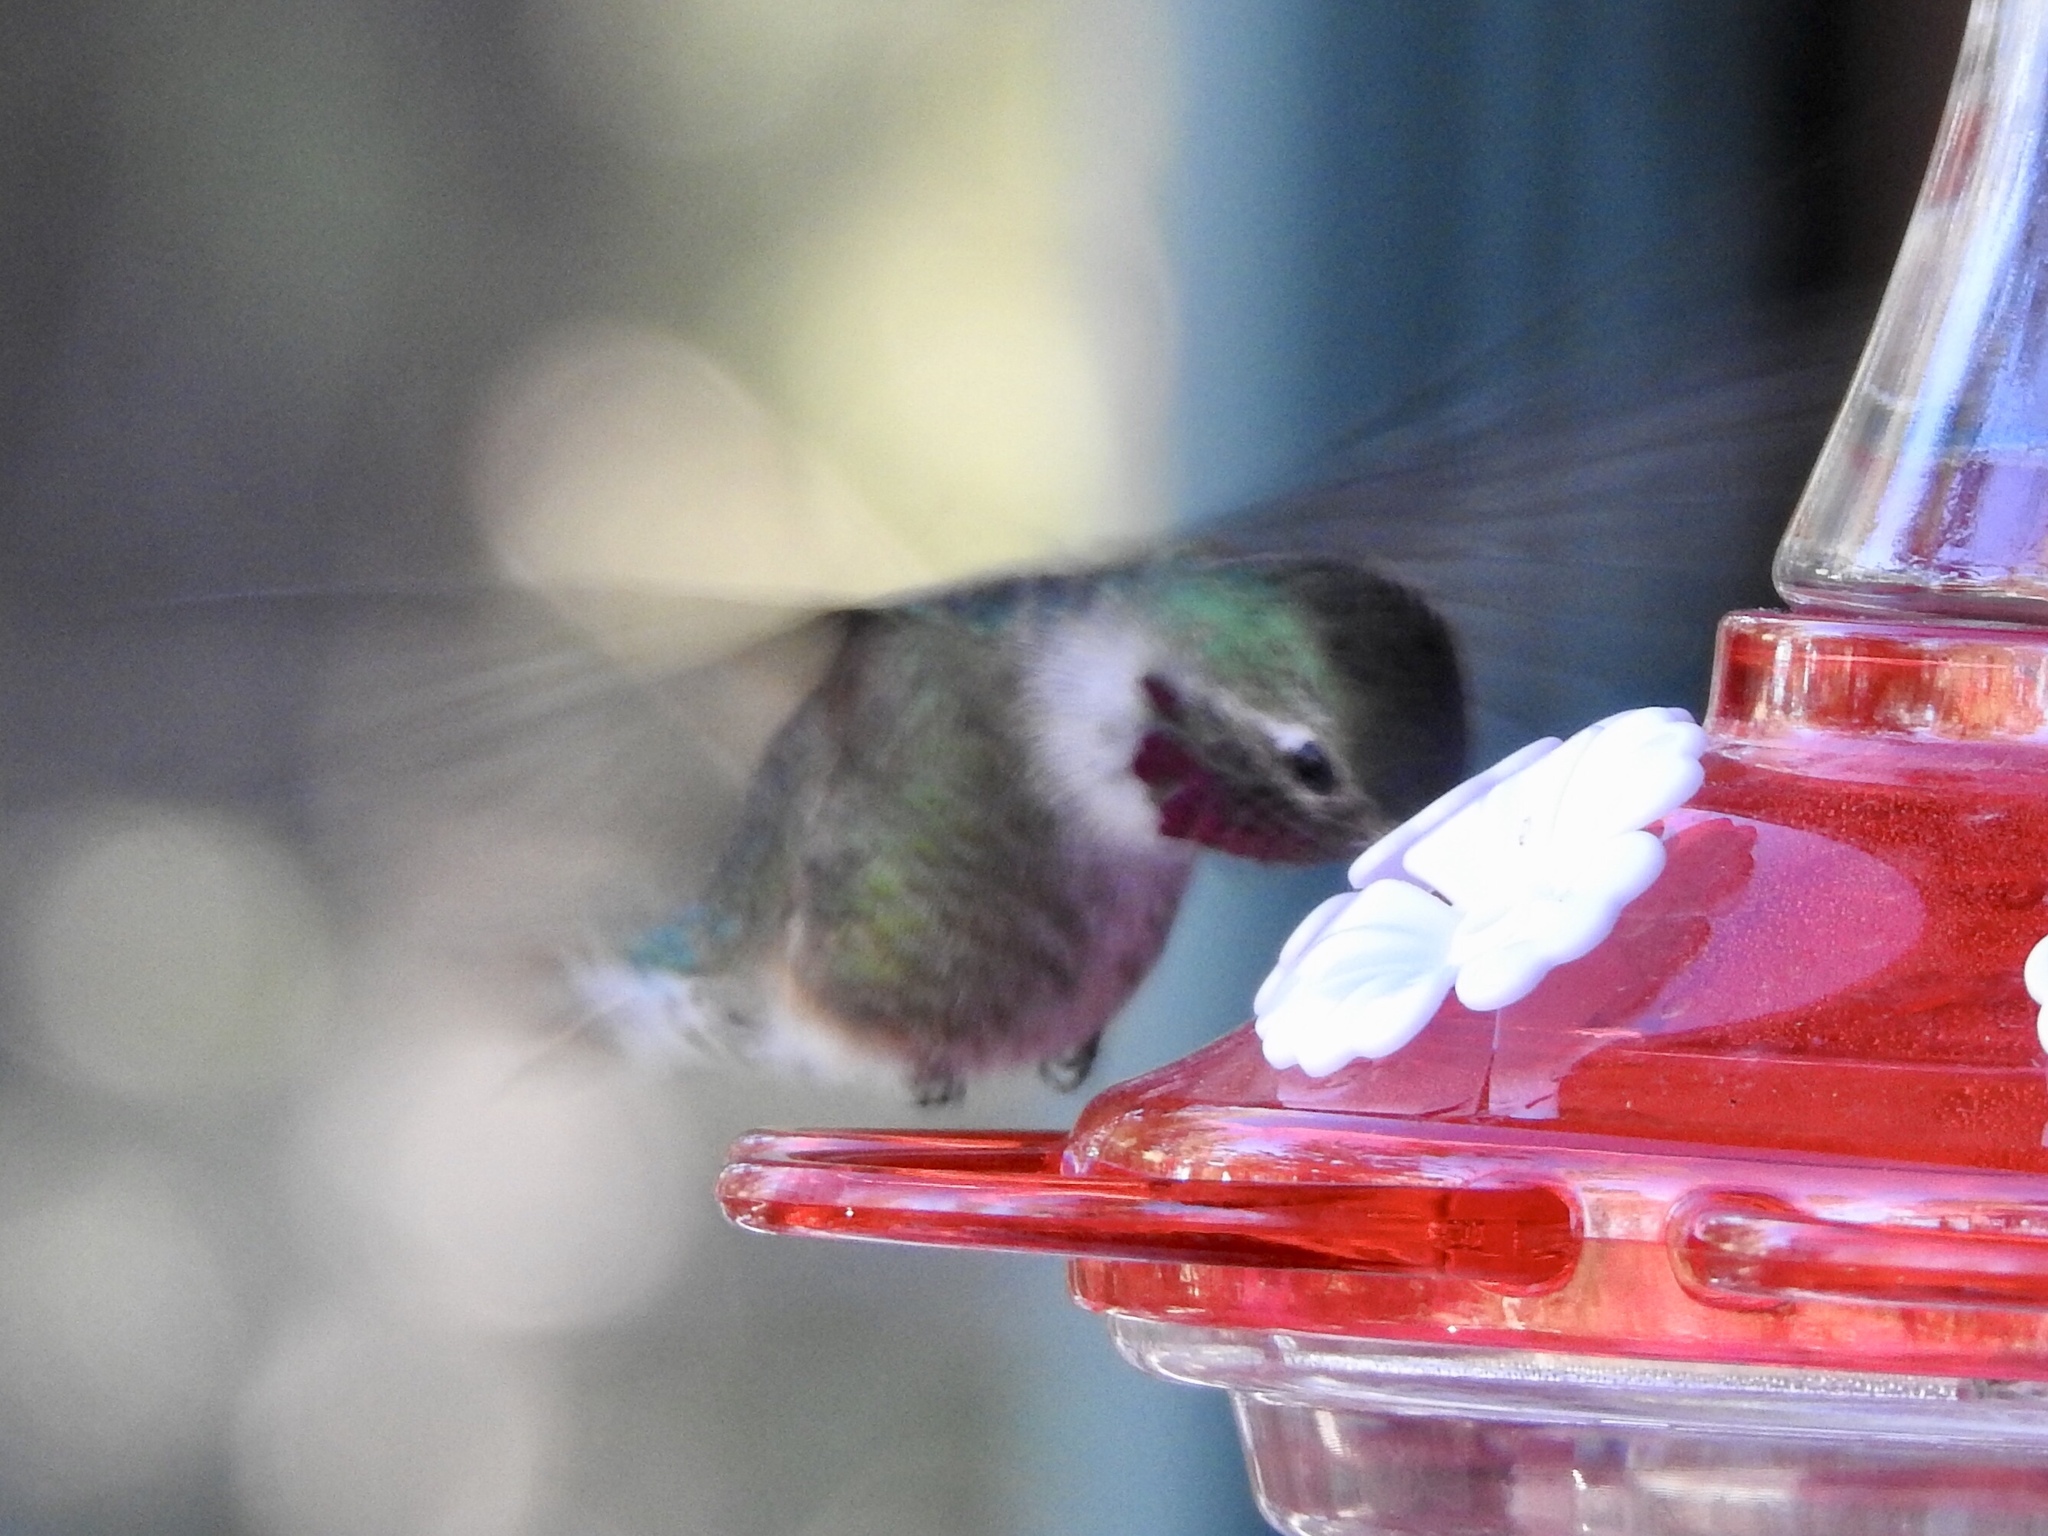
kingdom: Animalia
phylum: Chordata
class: Aves
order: Apodiformes
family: Trochilidae
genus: Selasphorus
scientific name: Selasphorus platycercus
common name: Broad-tailed hummingbird
